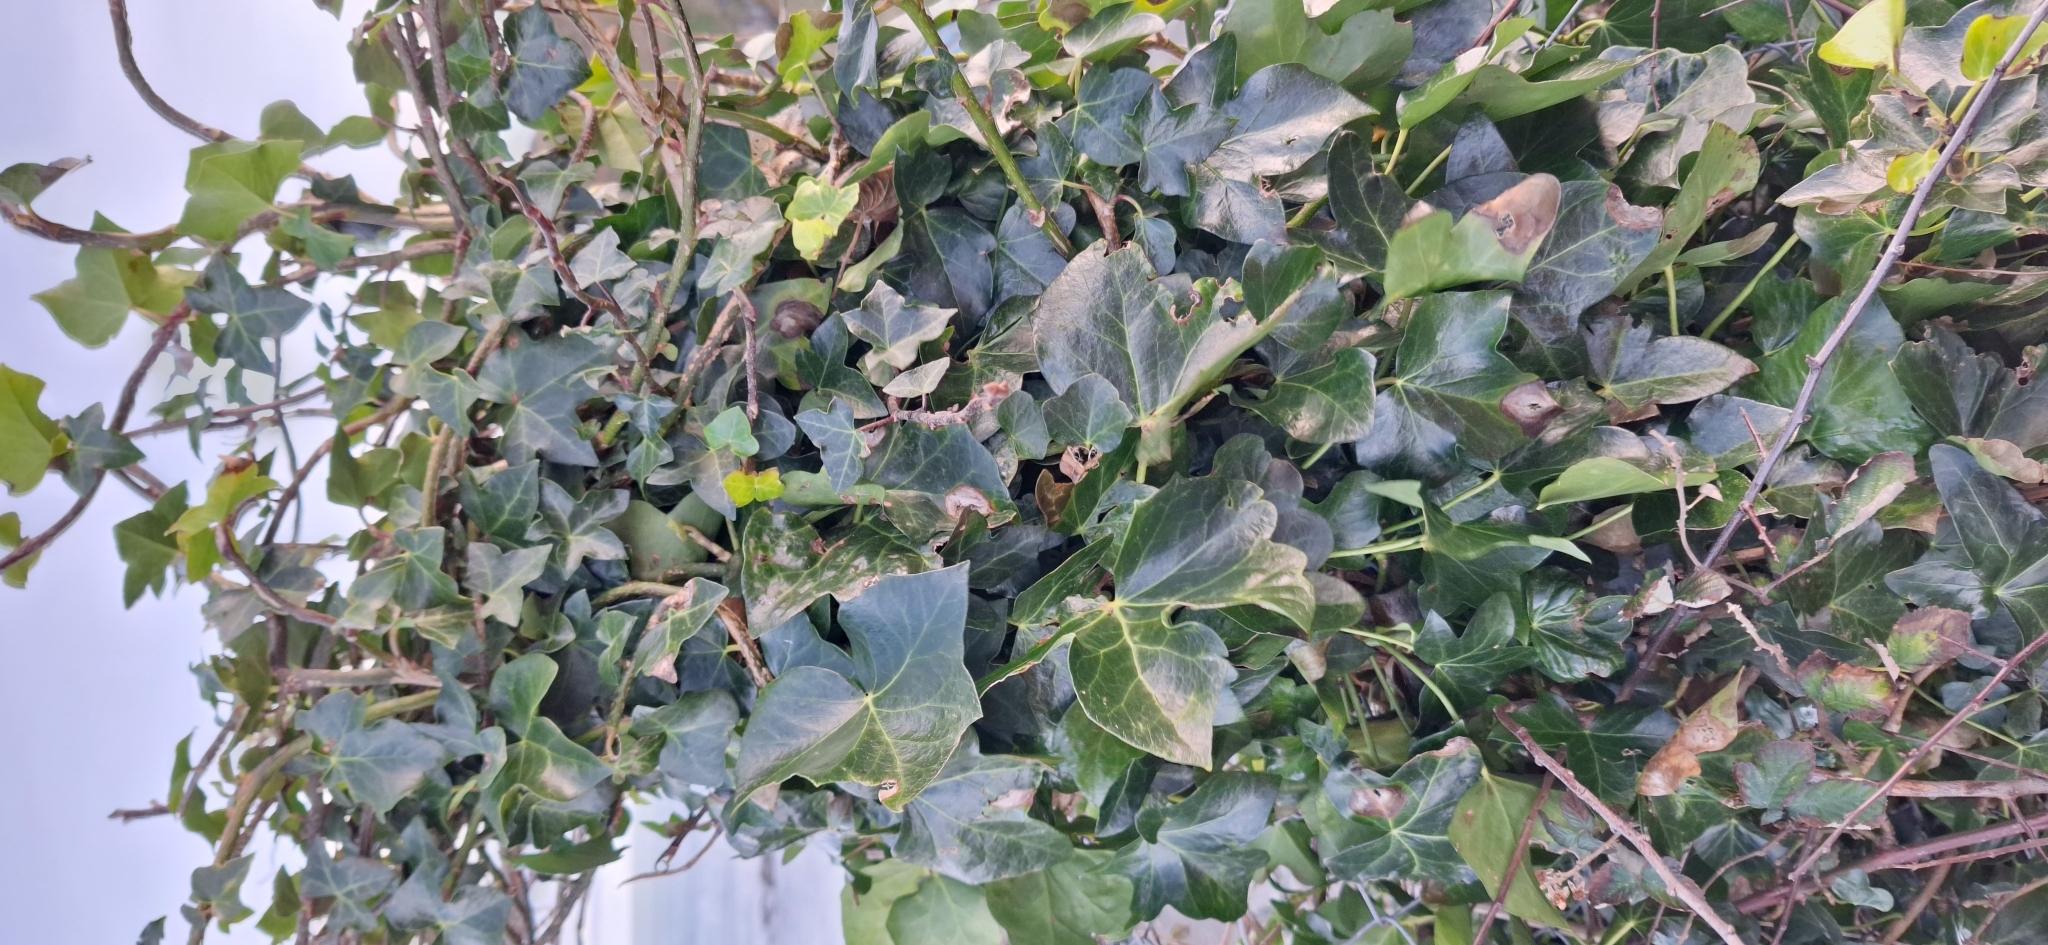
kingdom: Plantae
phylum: Tracheophyta
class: Magnoliopsida
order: Apiales
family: Araliaceae
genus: Hedera
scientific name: Hedera helix
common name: Ivy
